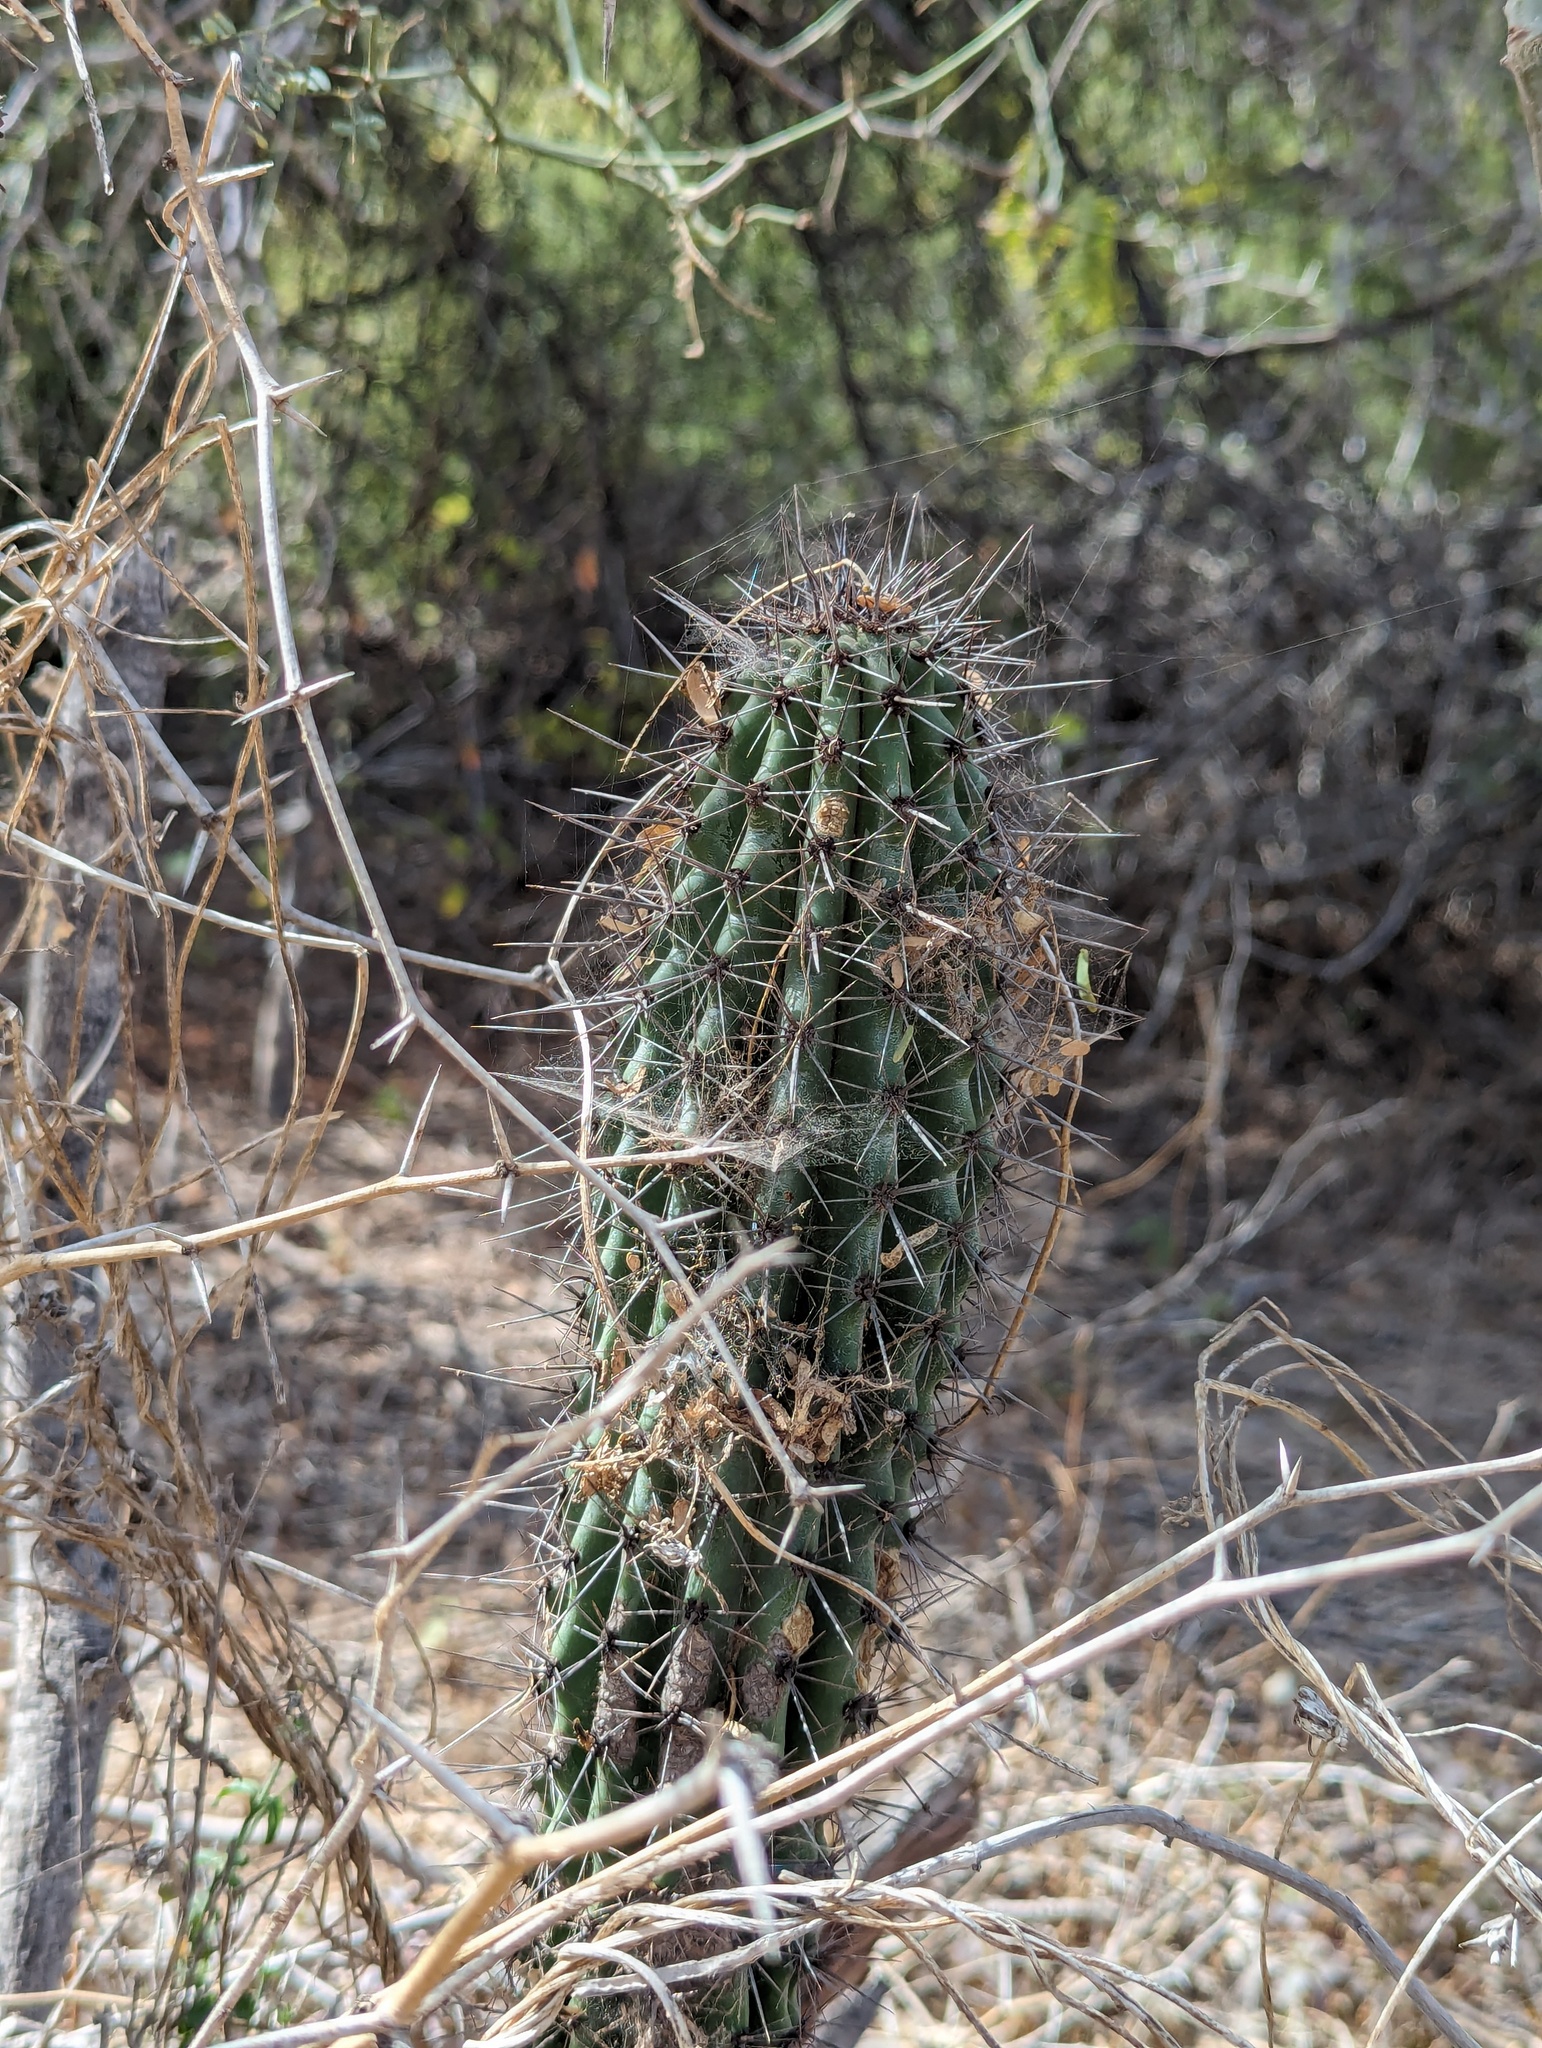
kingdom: Plantae
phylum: Tracheophyta
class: Magnoliopsida
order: Caryophyllales
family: Cactaceae
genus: Stenocereus
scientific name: Stenocereus thurberi
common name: Organ pipe cactus
